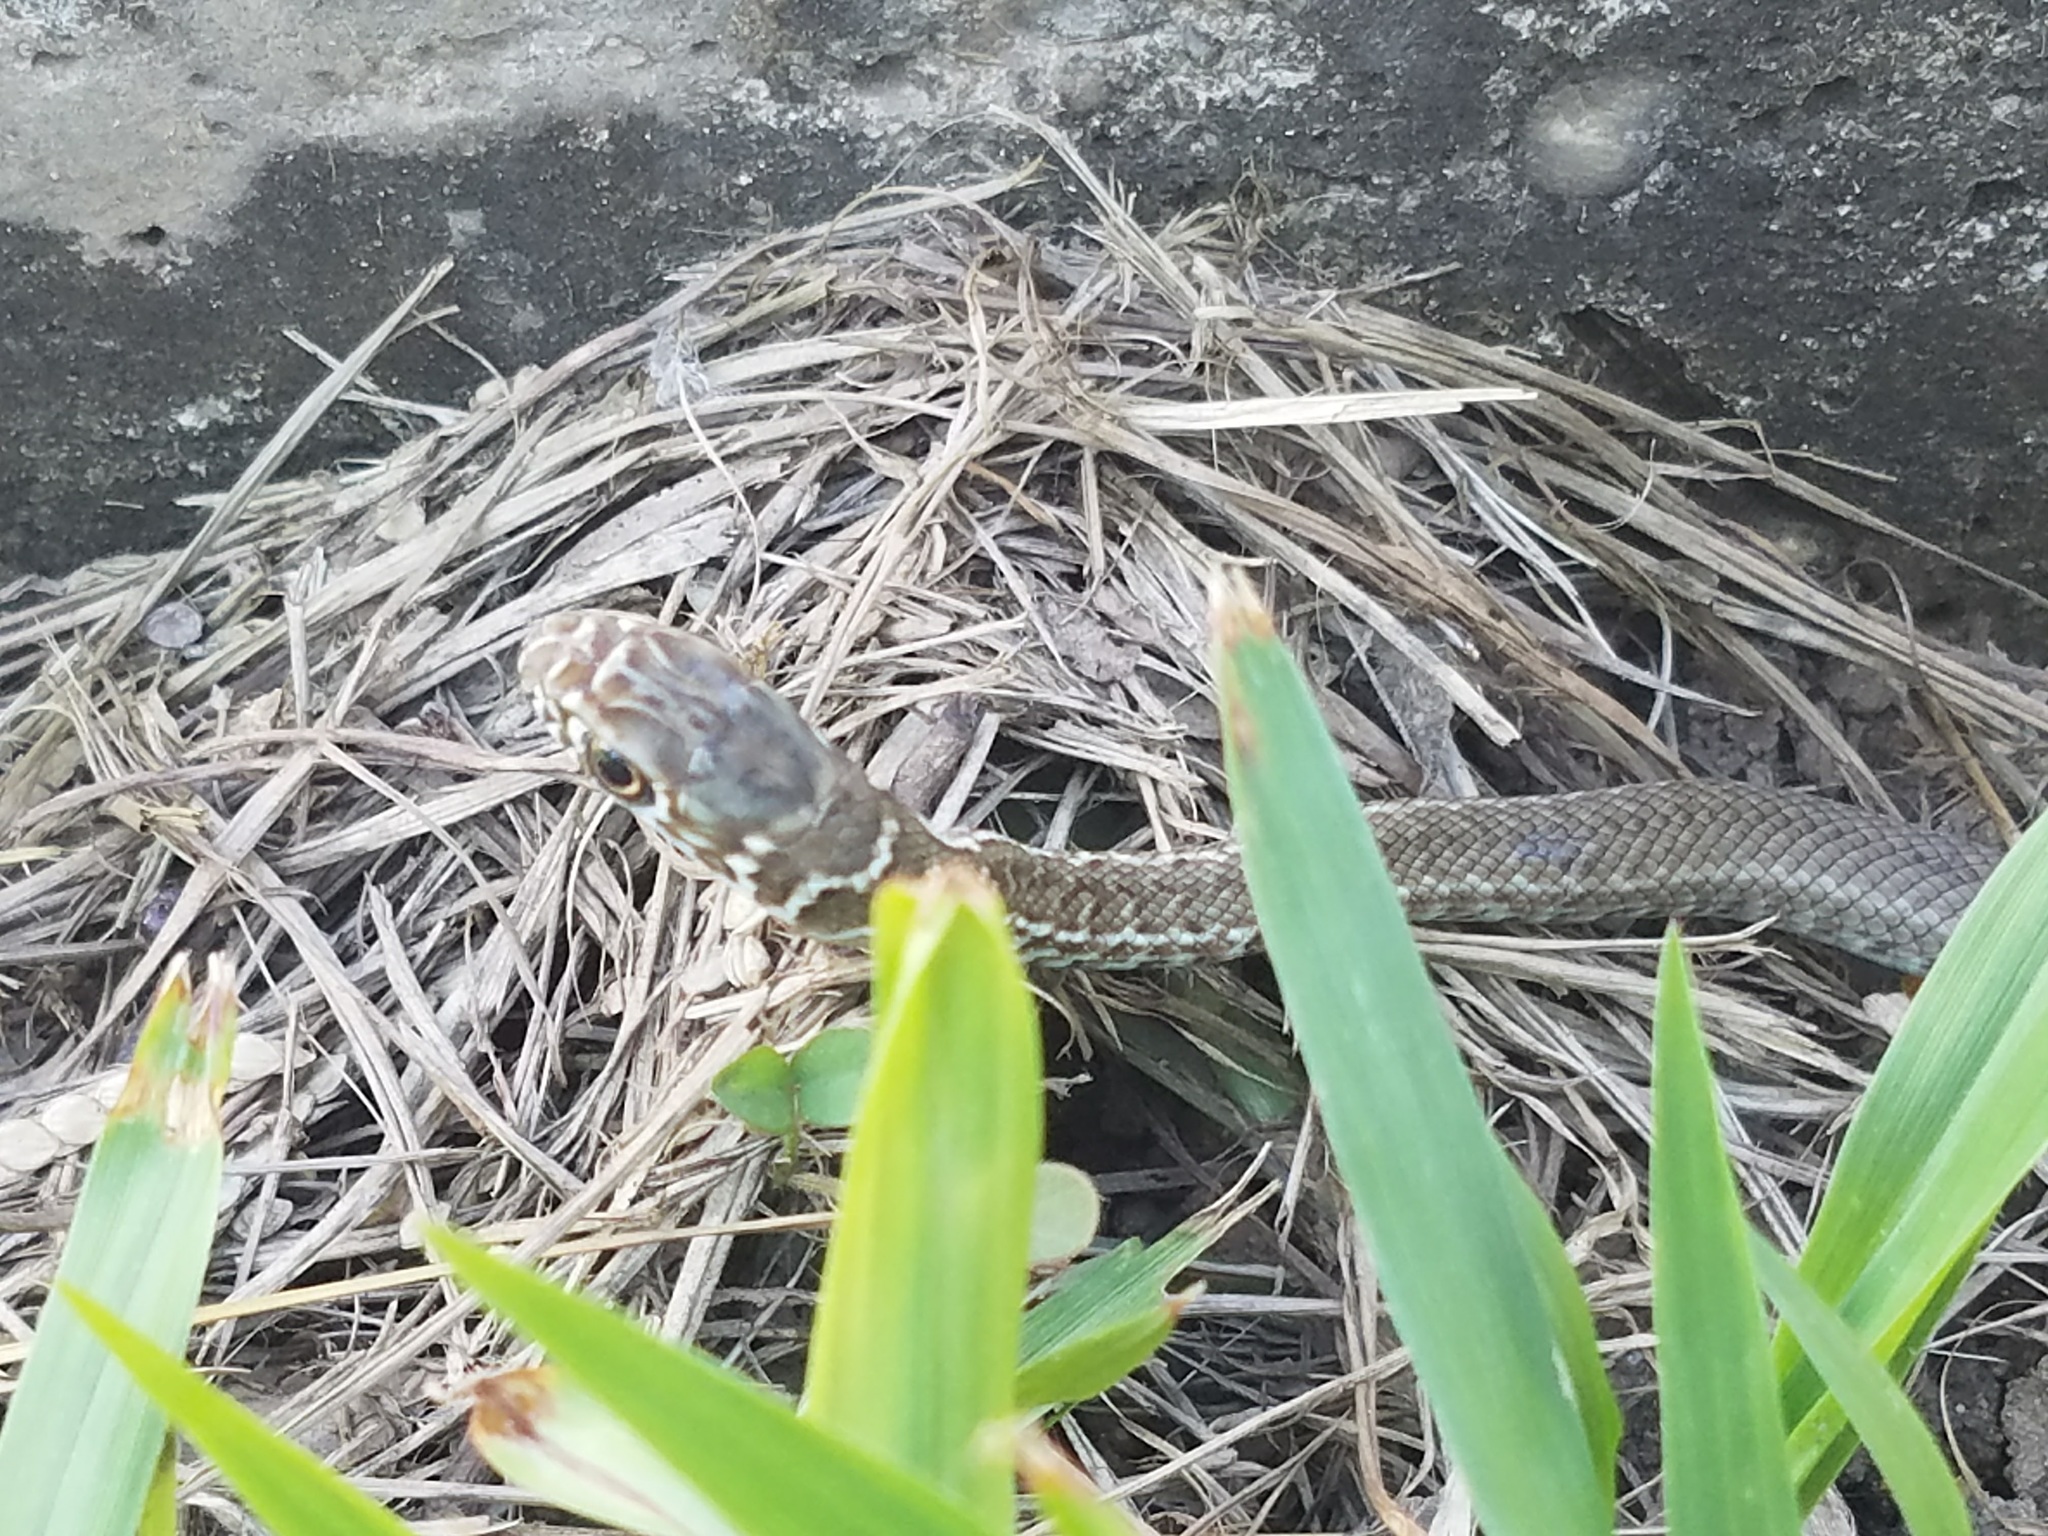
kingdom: Animalia
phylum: Chordata
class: Squamata
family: Colubridae
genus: Masticophis
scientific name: Masticophis mentovarius
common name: Neotropical whip snake
